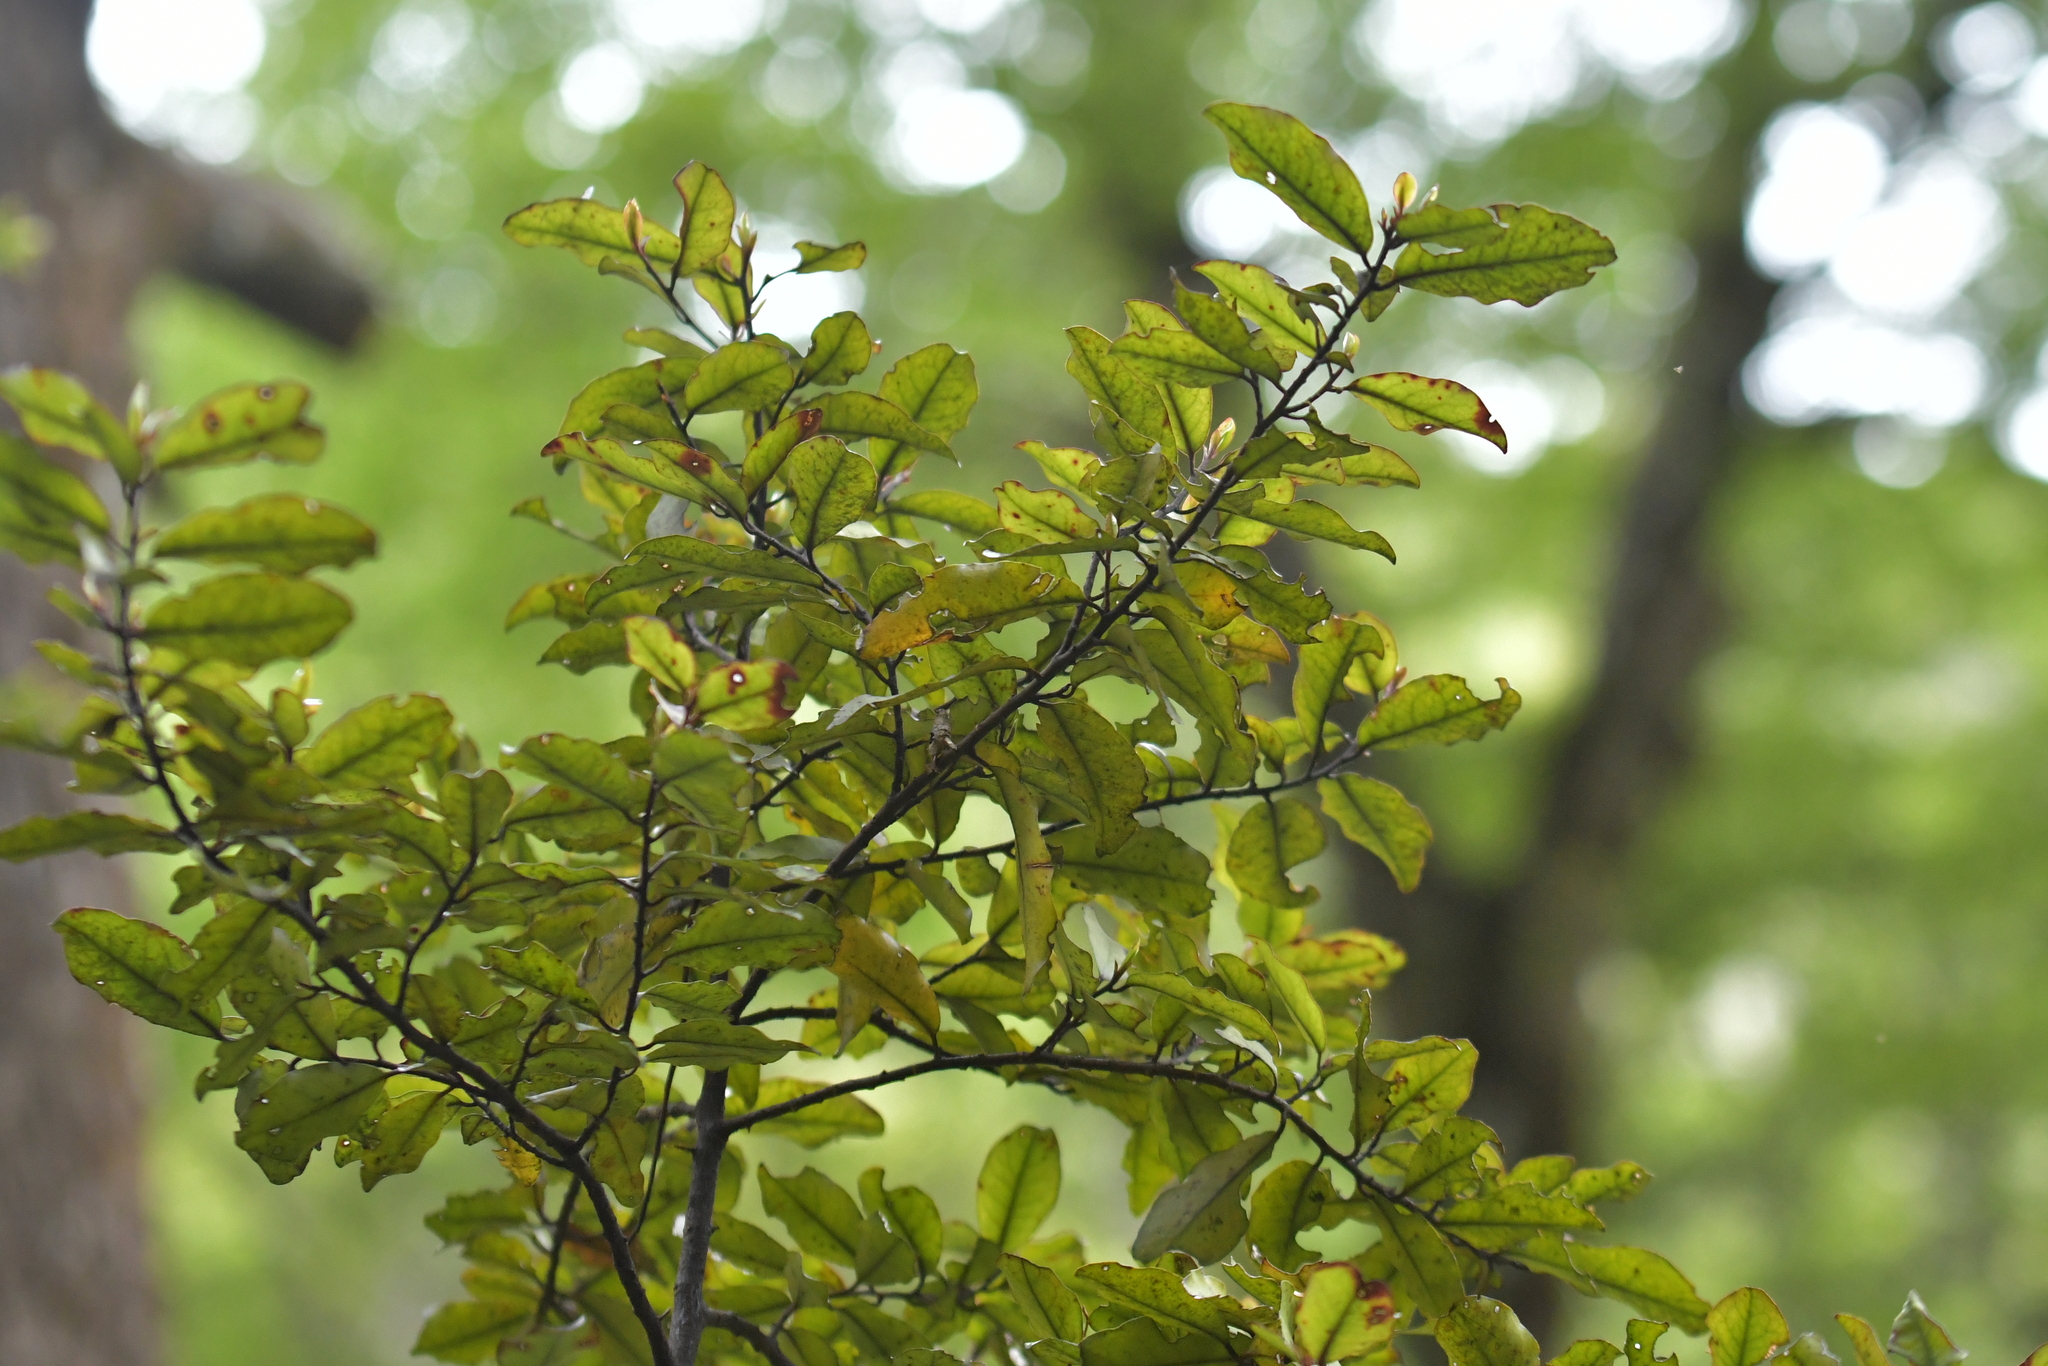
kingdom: Plantae
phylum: Tracheophyta
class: Magnoliopsida
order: Canellales
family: Winteraceae
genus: Pseudowintera
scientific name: Pseudowintera colorata
